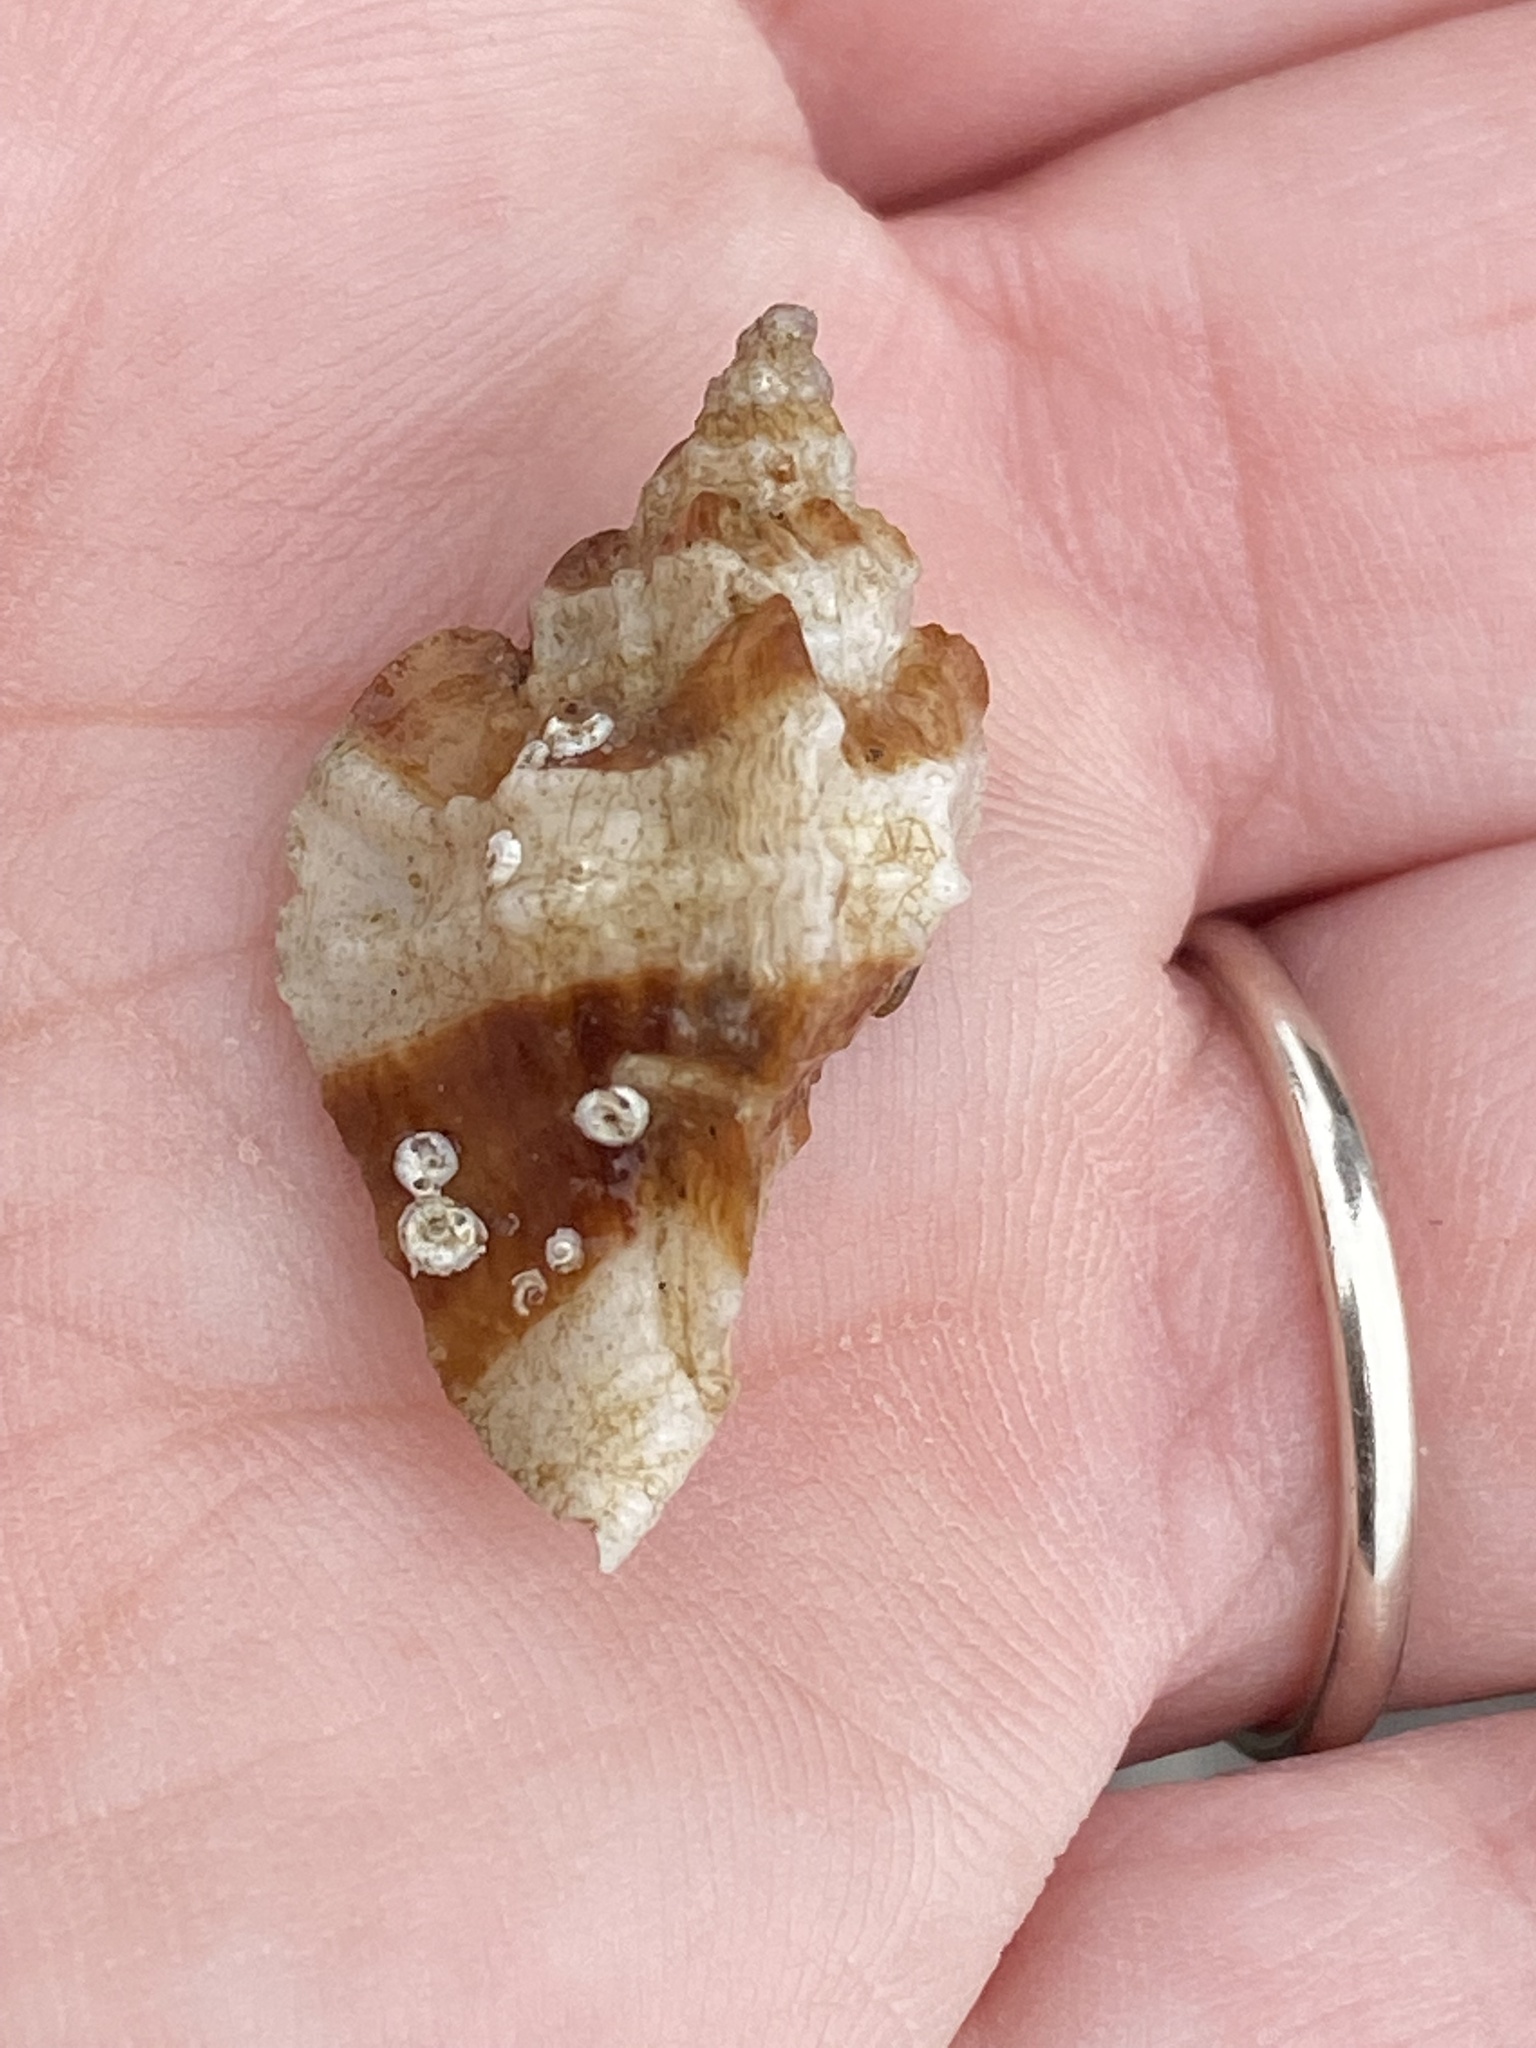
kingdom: Animalia
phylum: Mollusca
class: Gastropoda
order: Neogastropoda
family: Muricidae
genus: Ceratostoma
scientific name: Ceratostoma foliatum
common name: Foliate thorn purpura
